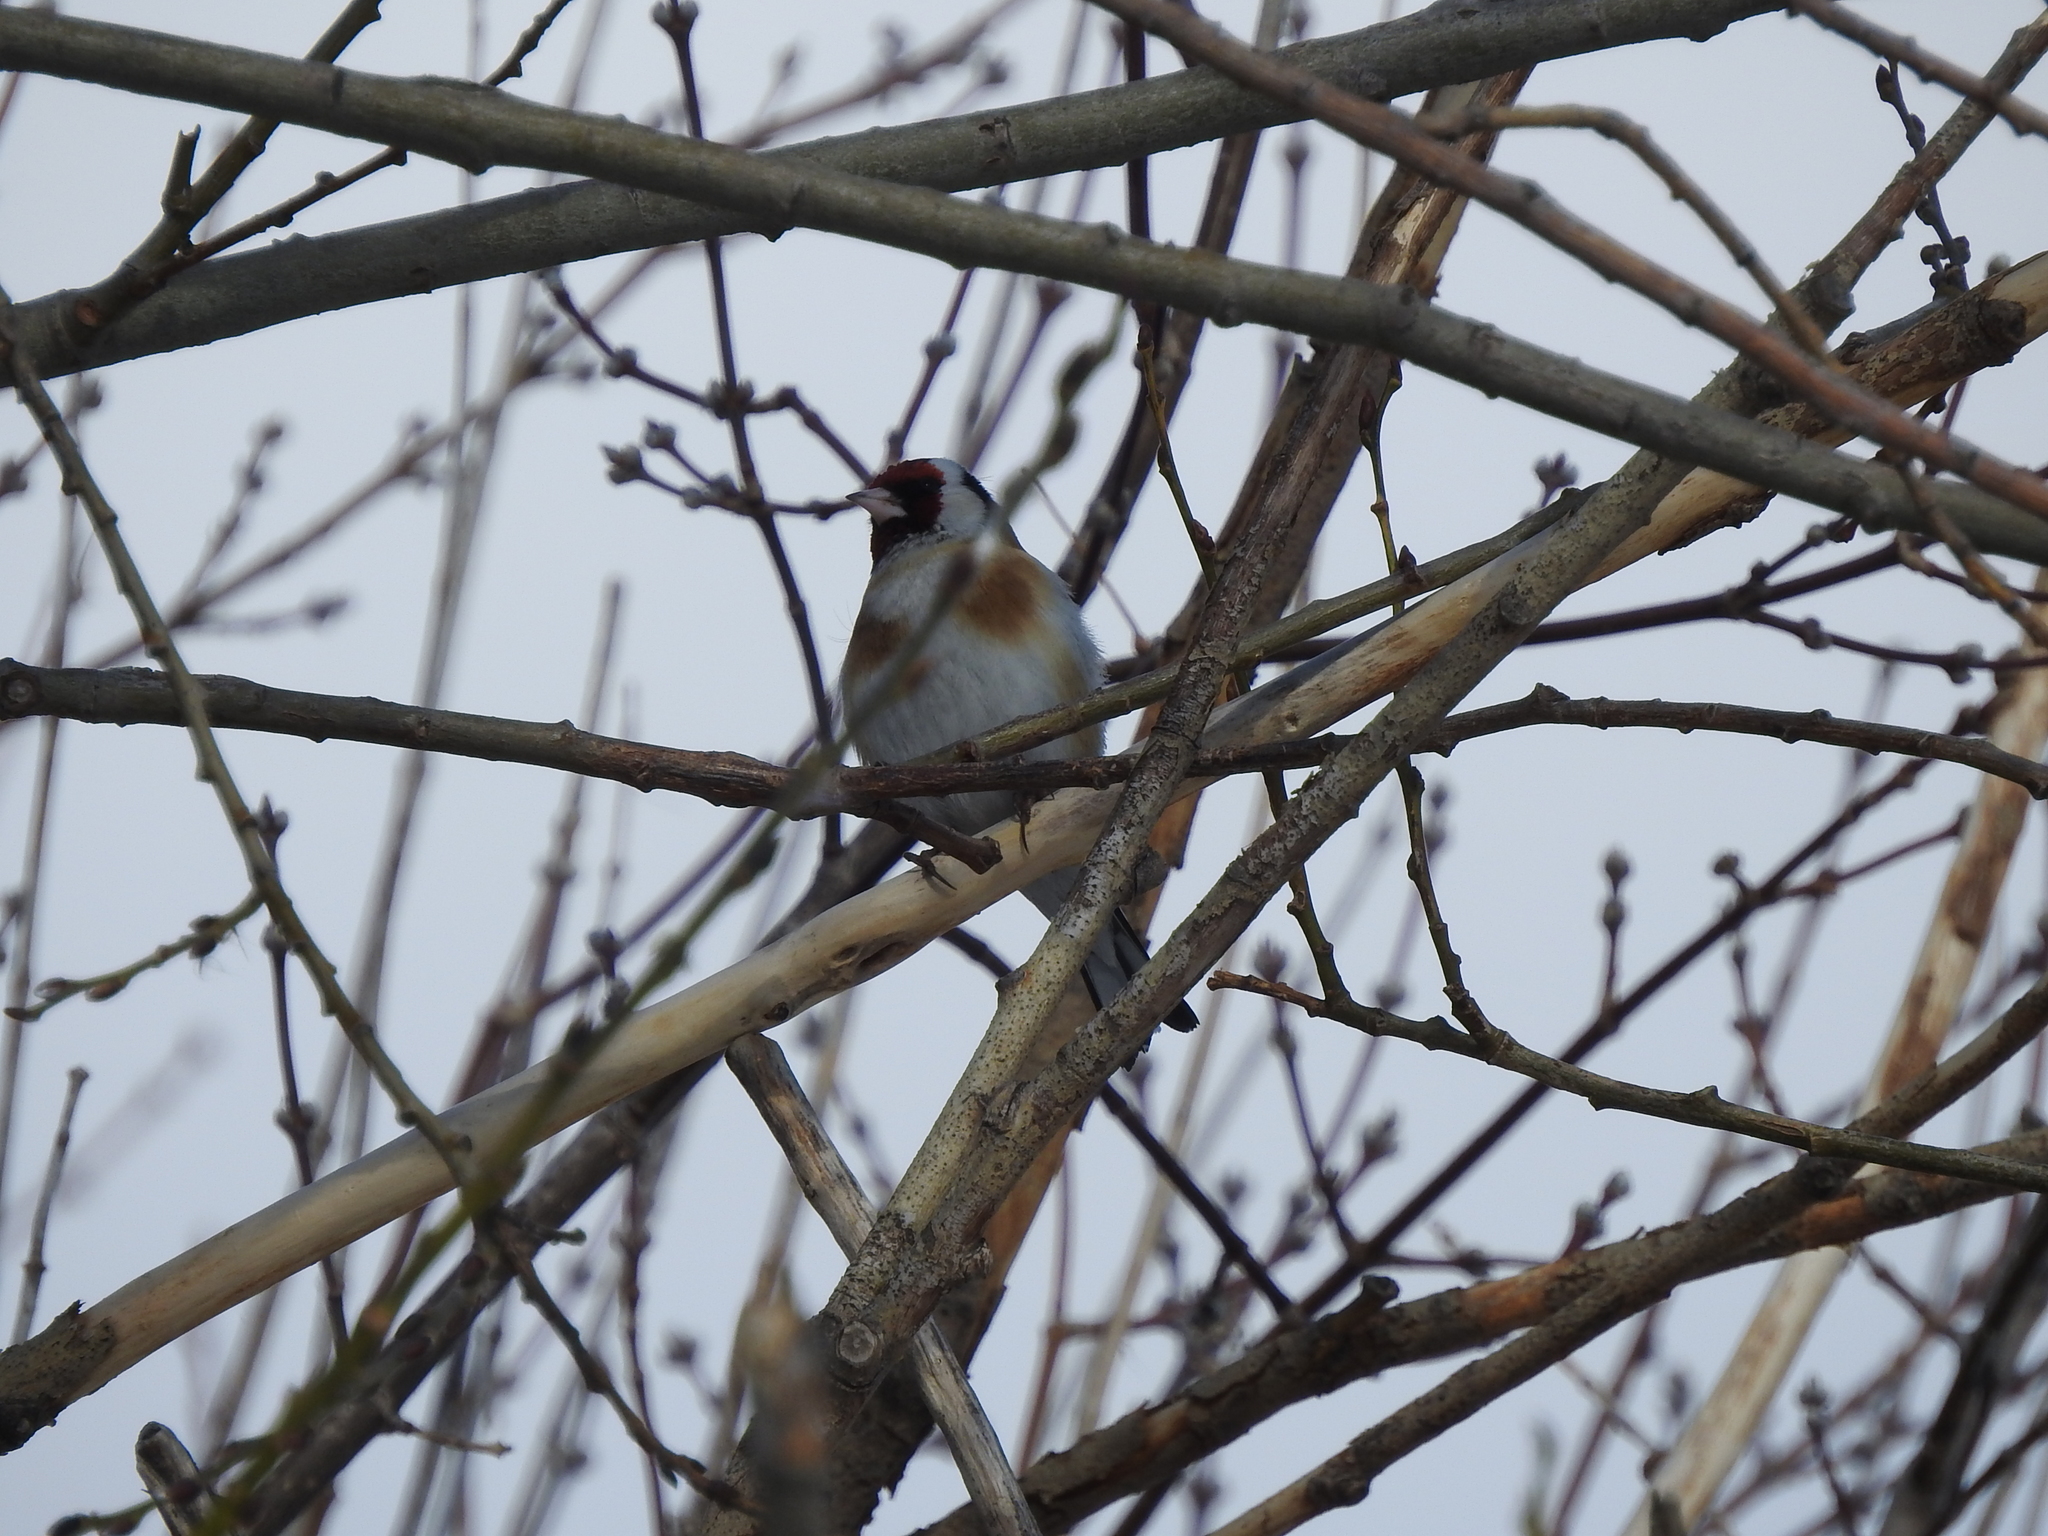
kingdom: Animalia
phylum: Chordata
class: Aves
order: Passeriformes
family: Fringillidae
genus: Carduelis
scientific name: Carduelis carduelis
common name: European goldfinch
